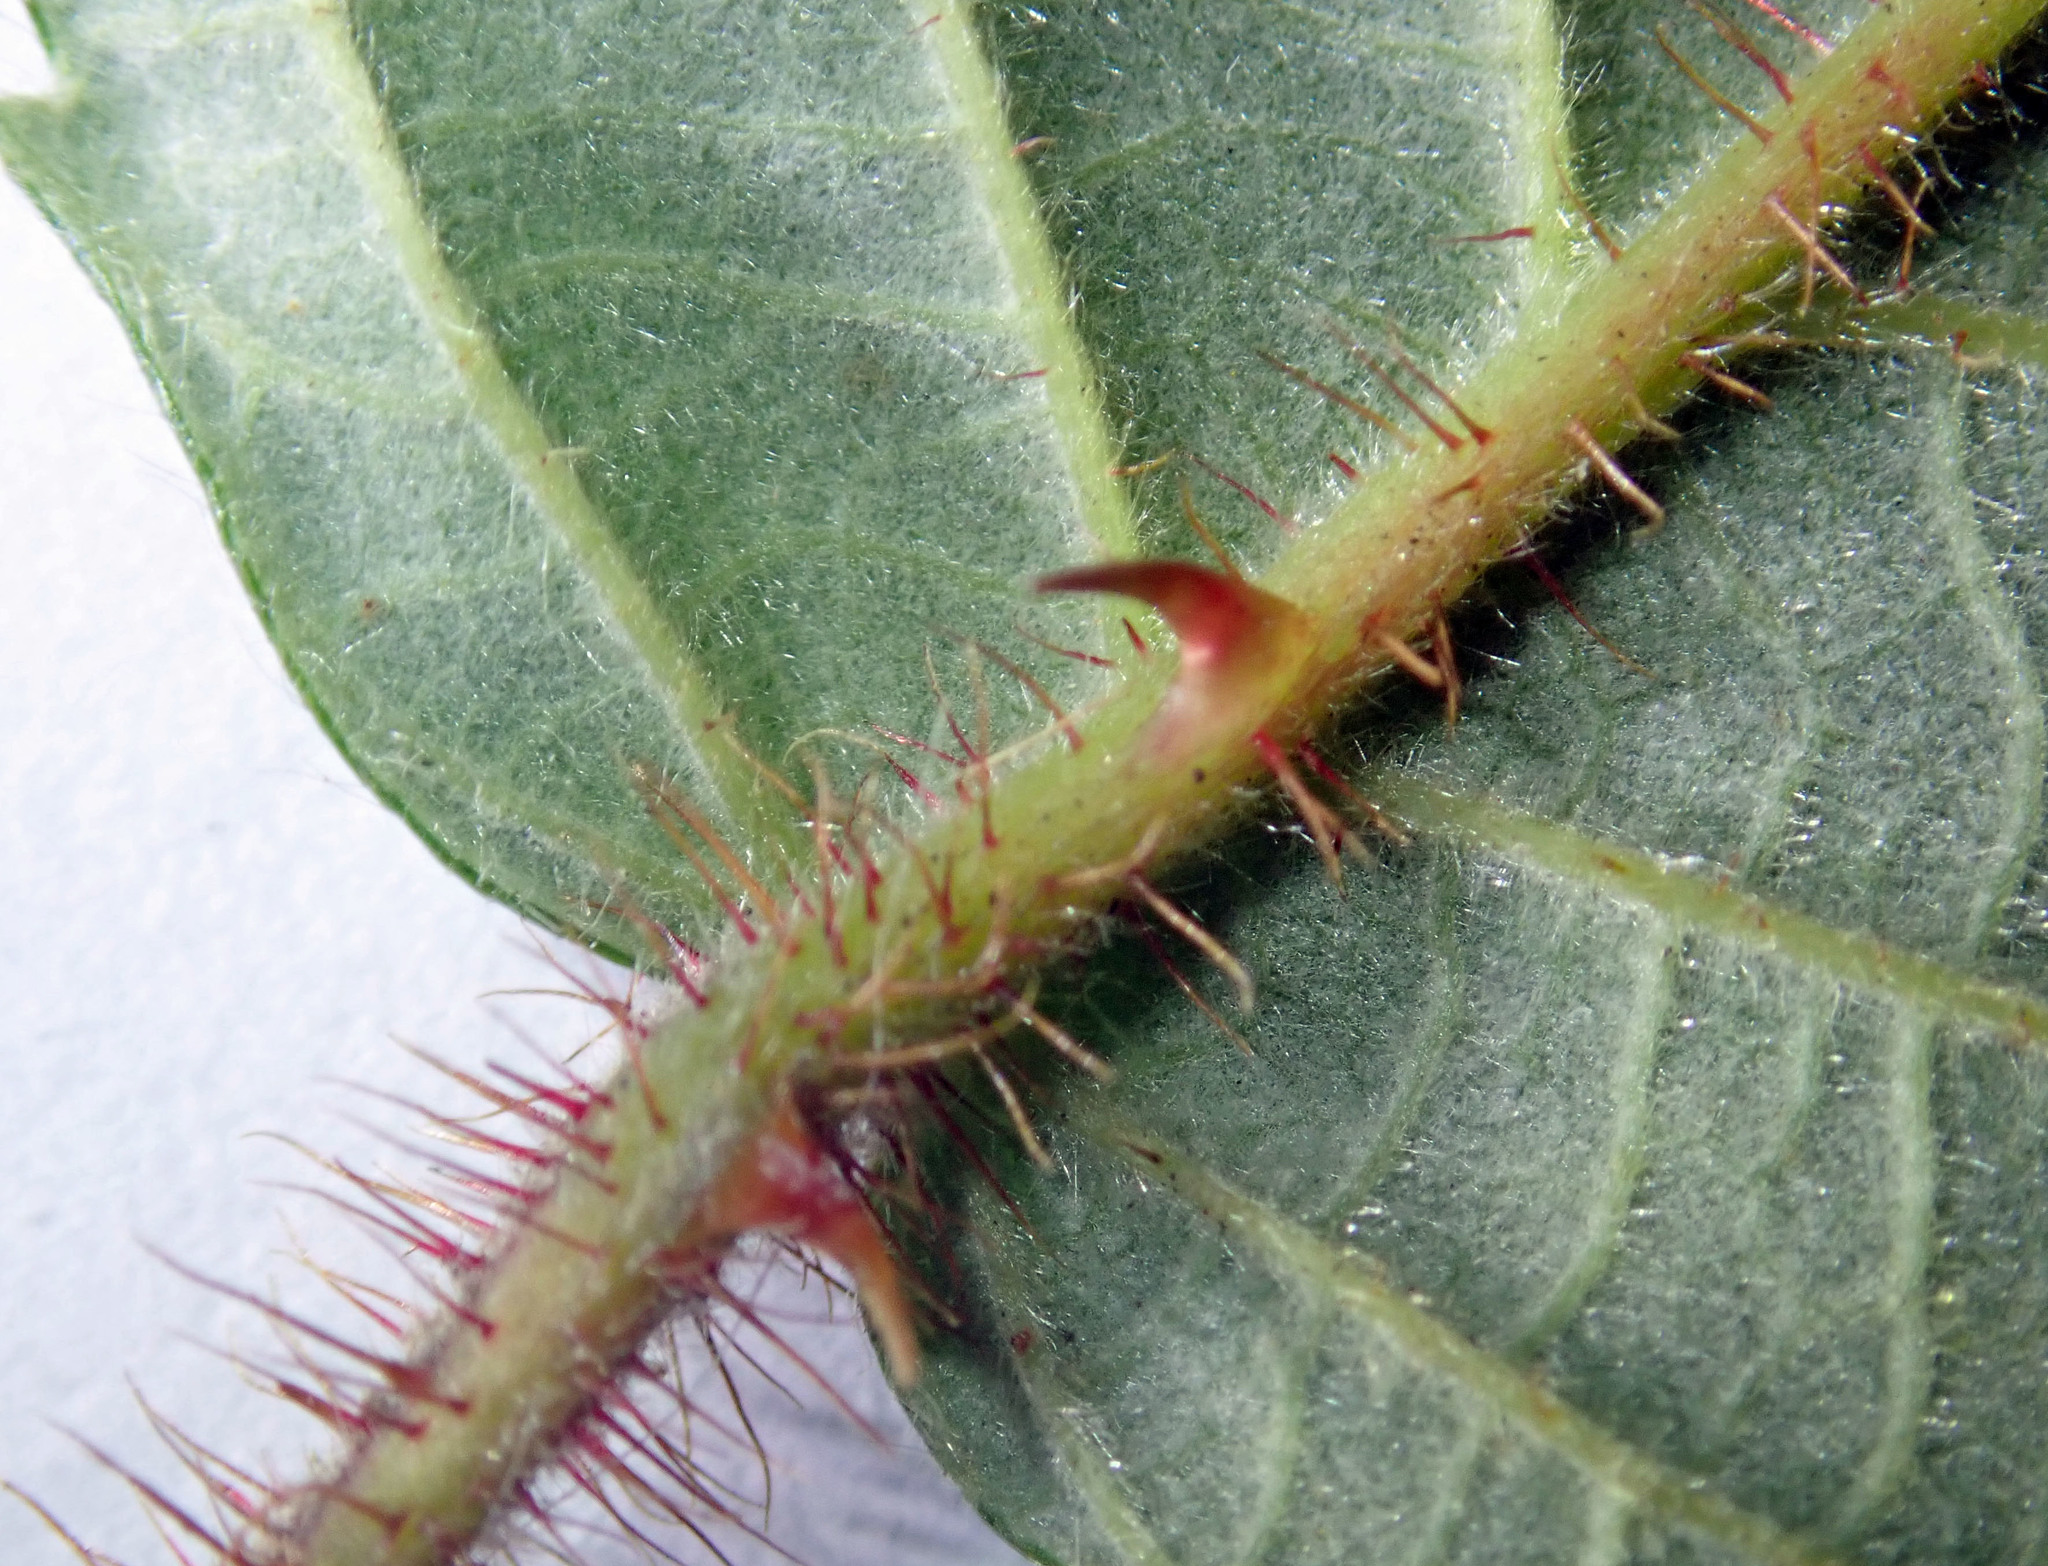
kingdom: Plantae
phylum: Tracheophyta
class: Magnoliopsida
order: Rosales
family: Rosaceae
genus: Rubus
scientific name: Rubus ellipticus
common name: Cheeseberry
